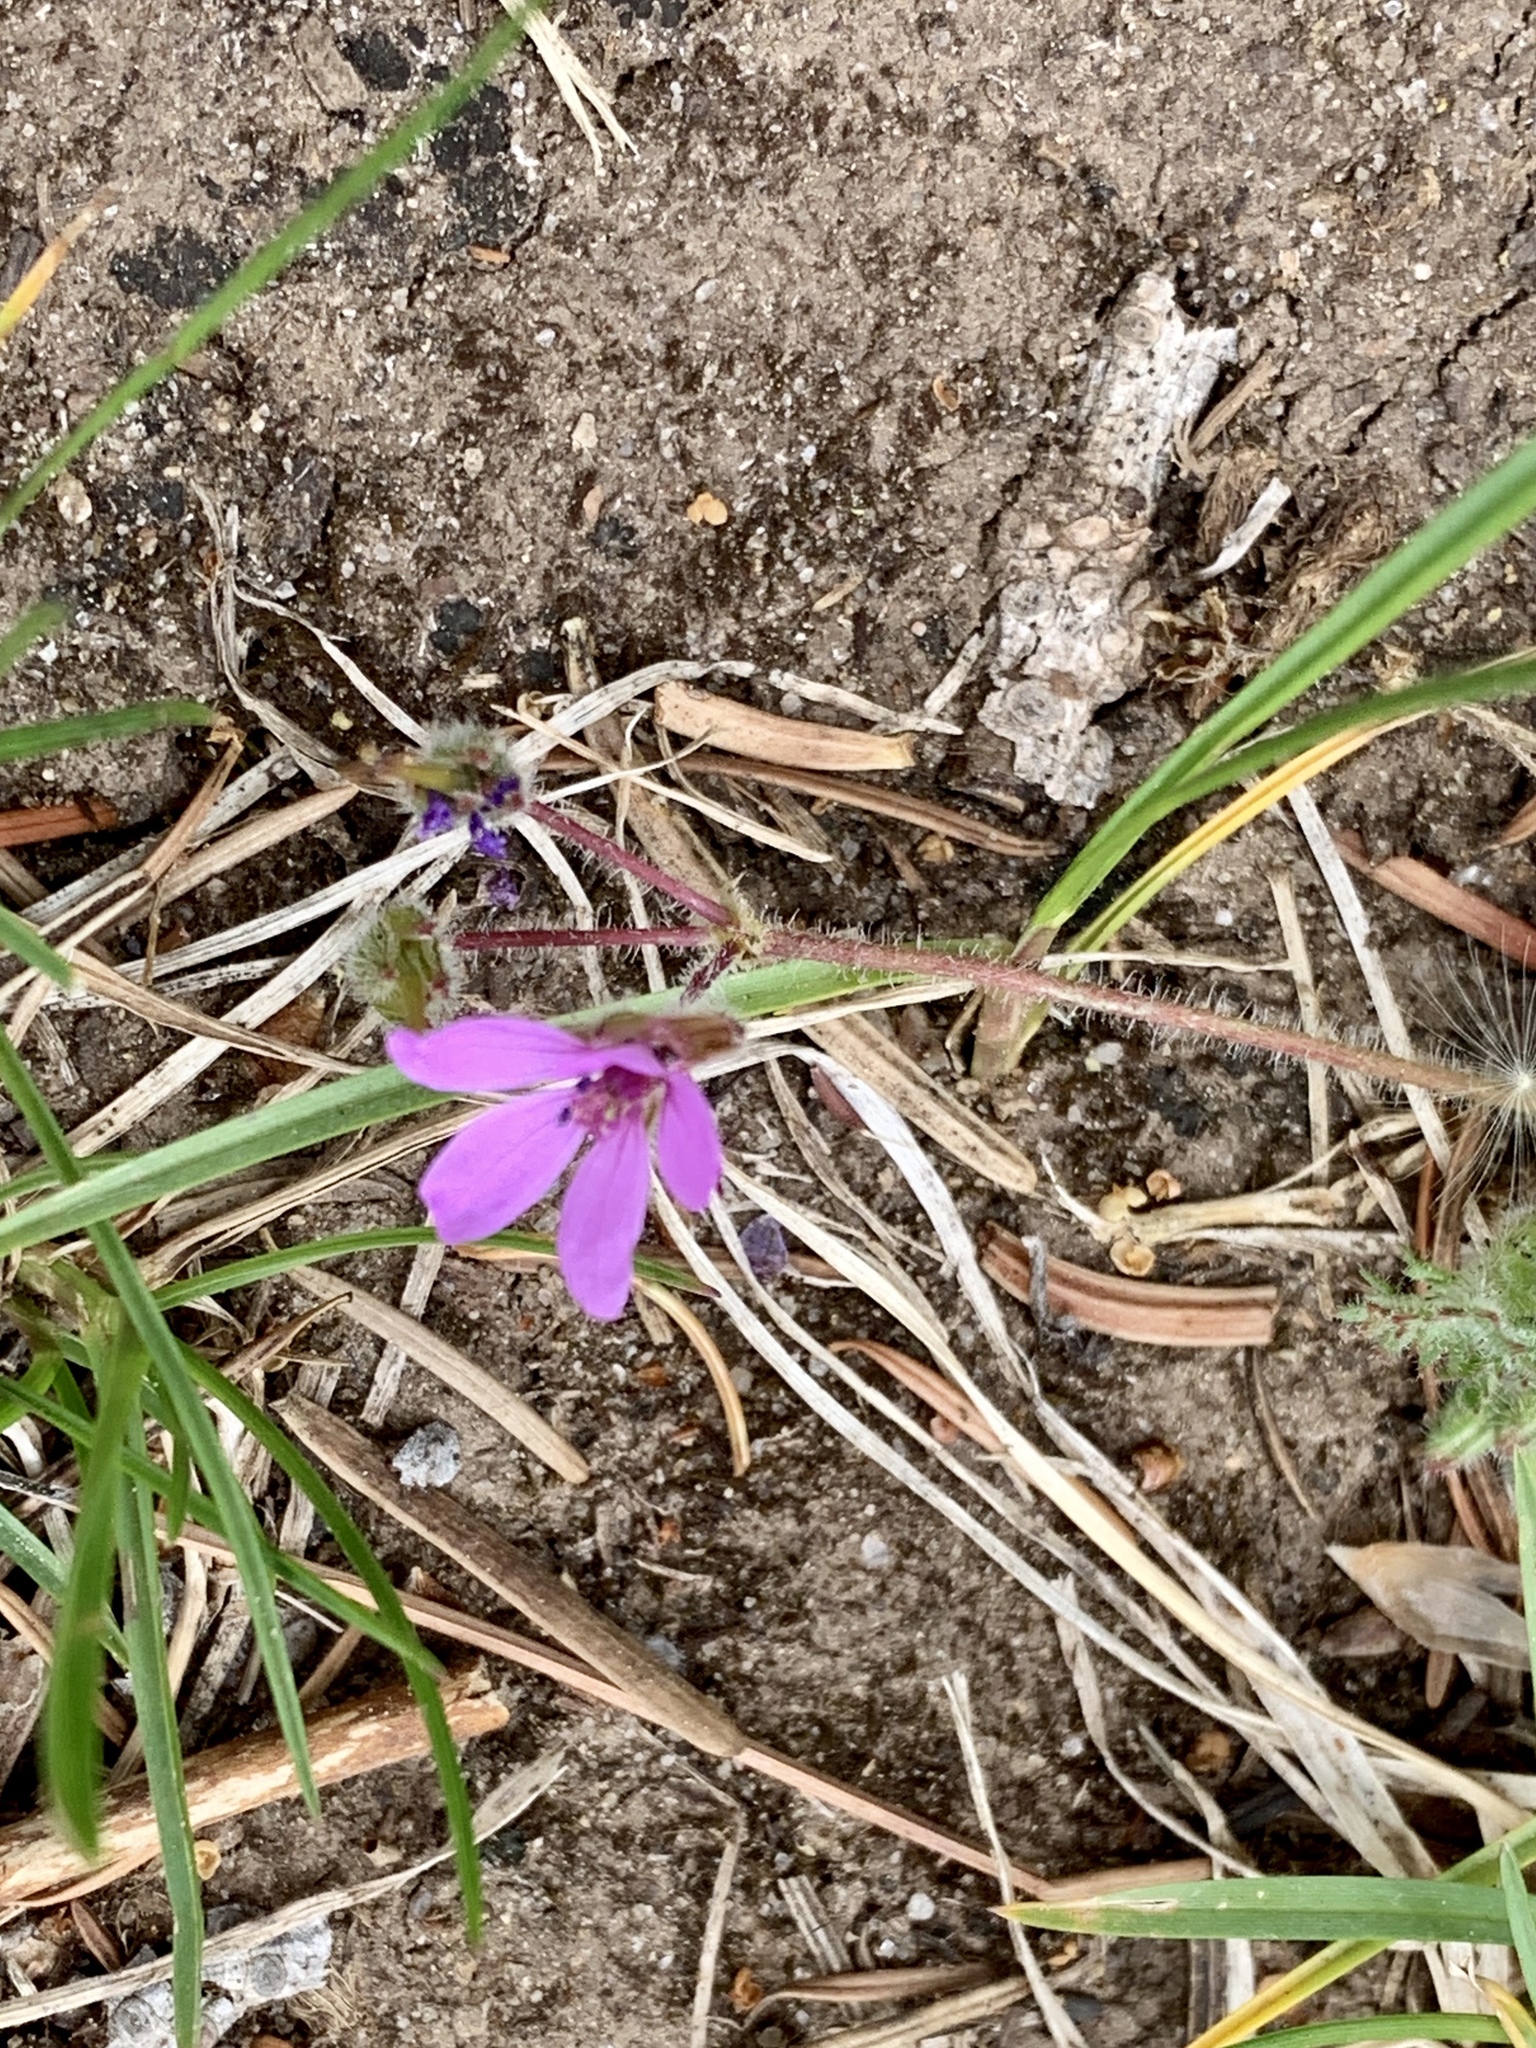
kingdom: Plantae
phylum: Tracheophyta
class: Magnoliopsida
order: Geraniales
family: Geraniaceae
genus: Erodium
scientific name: Erodium cicutarium
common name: Common stork's-bill
